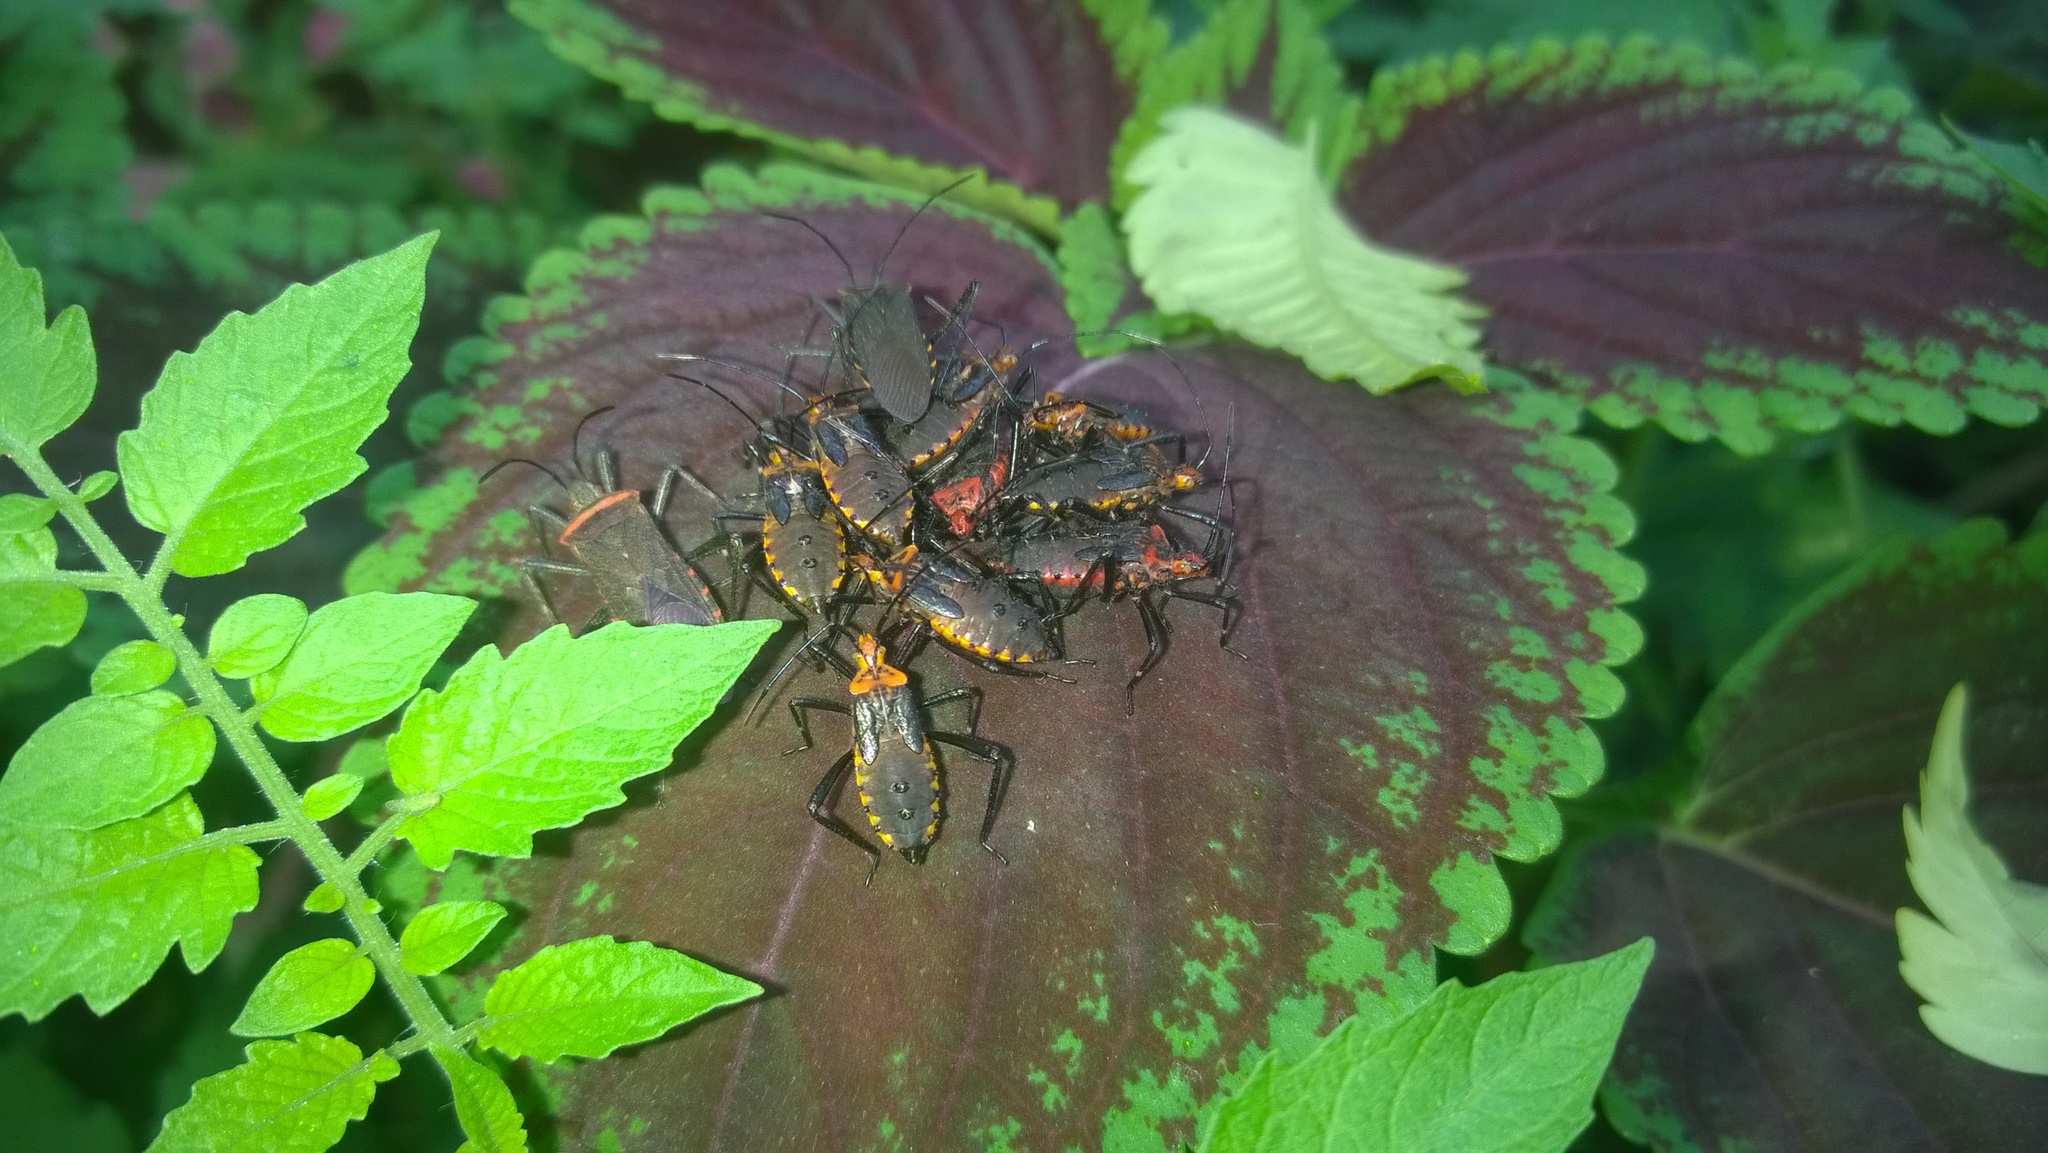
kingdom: Animalia
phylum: Arthropoda
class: Insecta
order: Hemiptera
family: Coreidae
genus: Phthiacnemia
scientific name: Phthiacnemia picta
